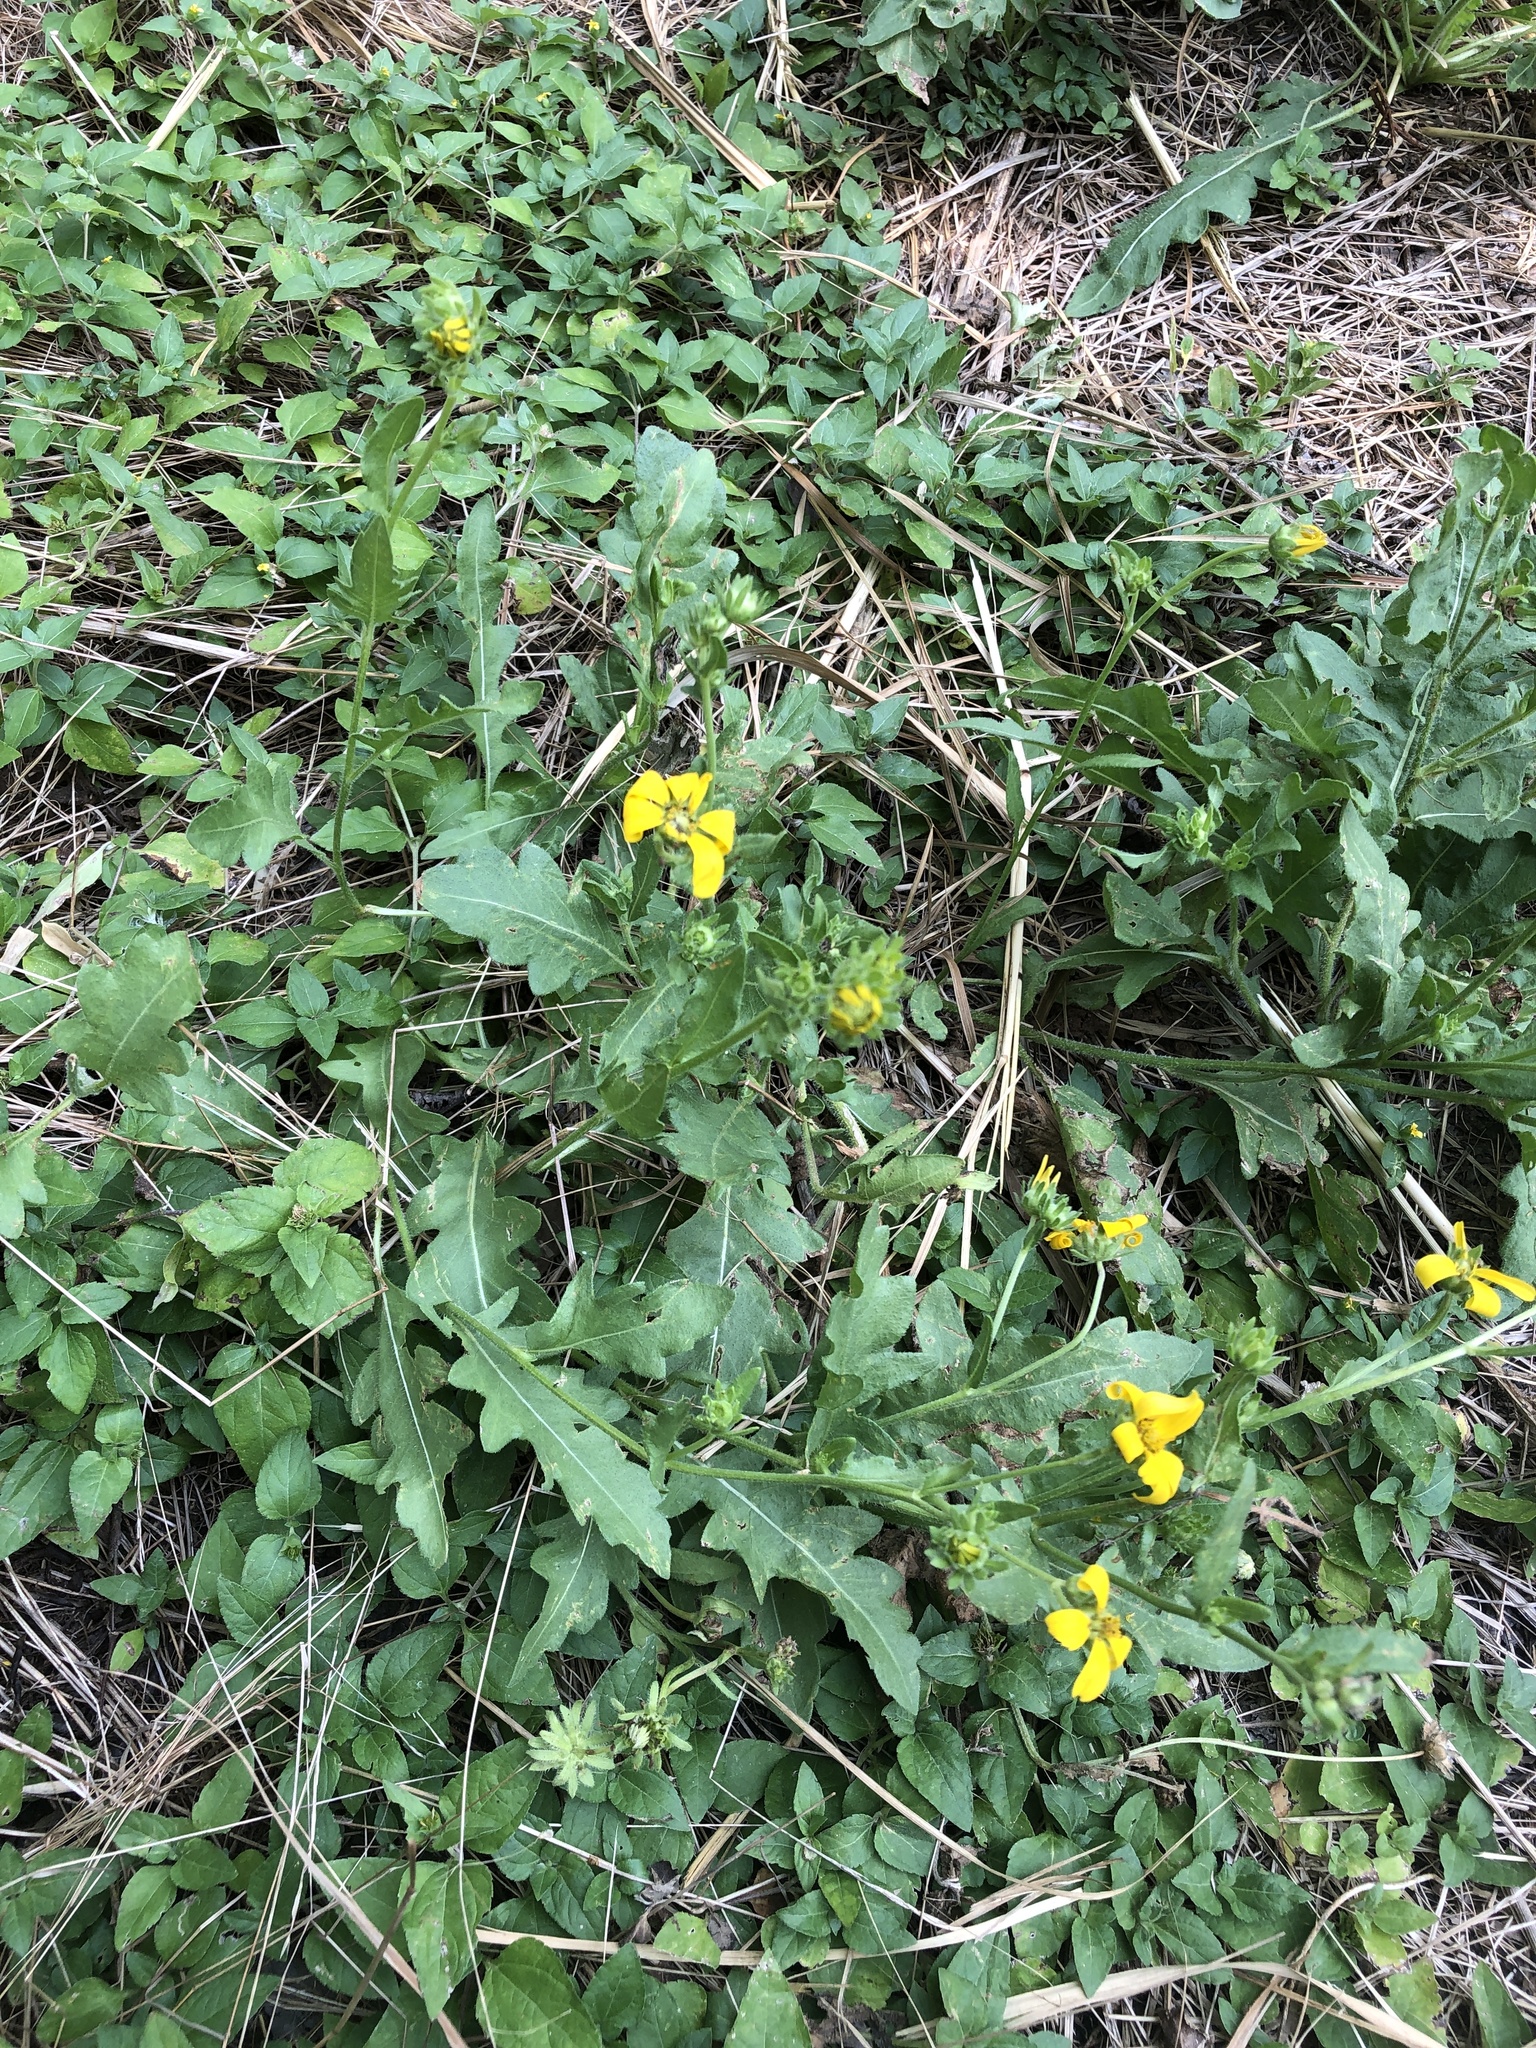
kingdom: Plantae
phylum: Tracheophyta
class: Magnoliopsida
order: Asterales
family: Asteraceae
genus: Engelmannia
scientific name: Engelmannia peristenia
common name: Engelmann's daisy
